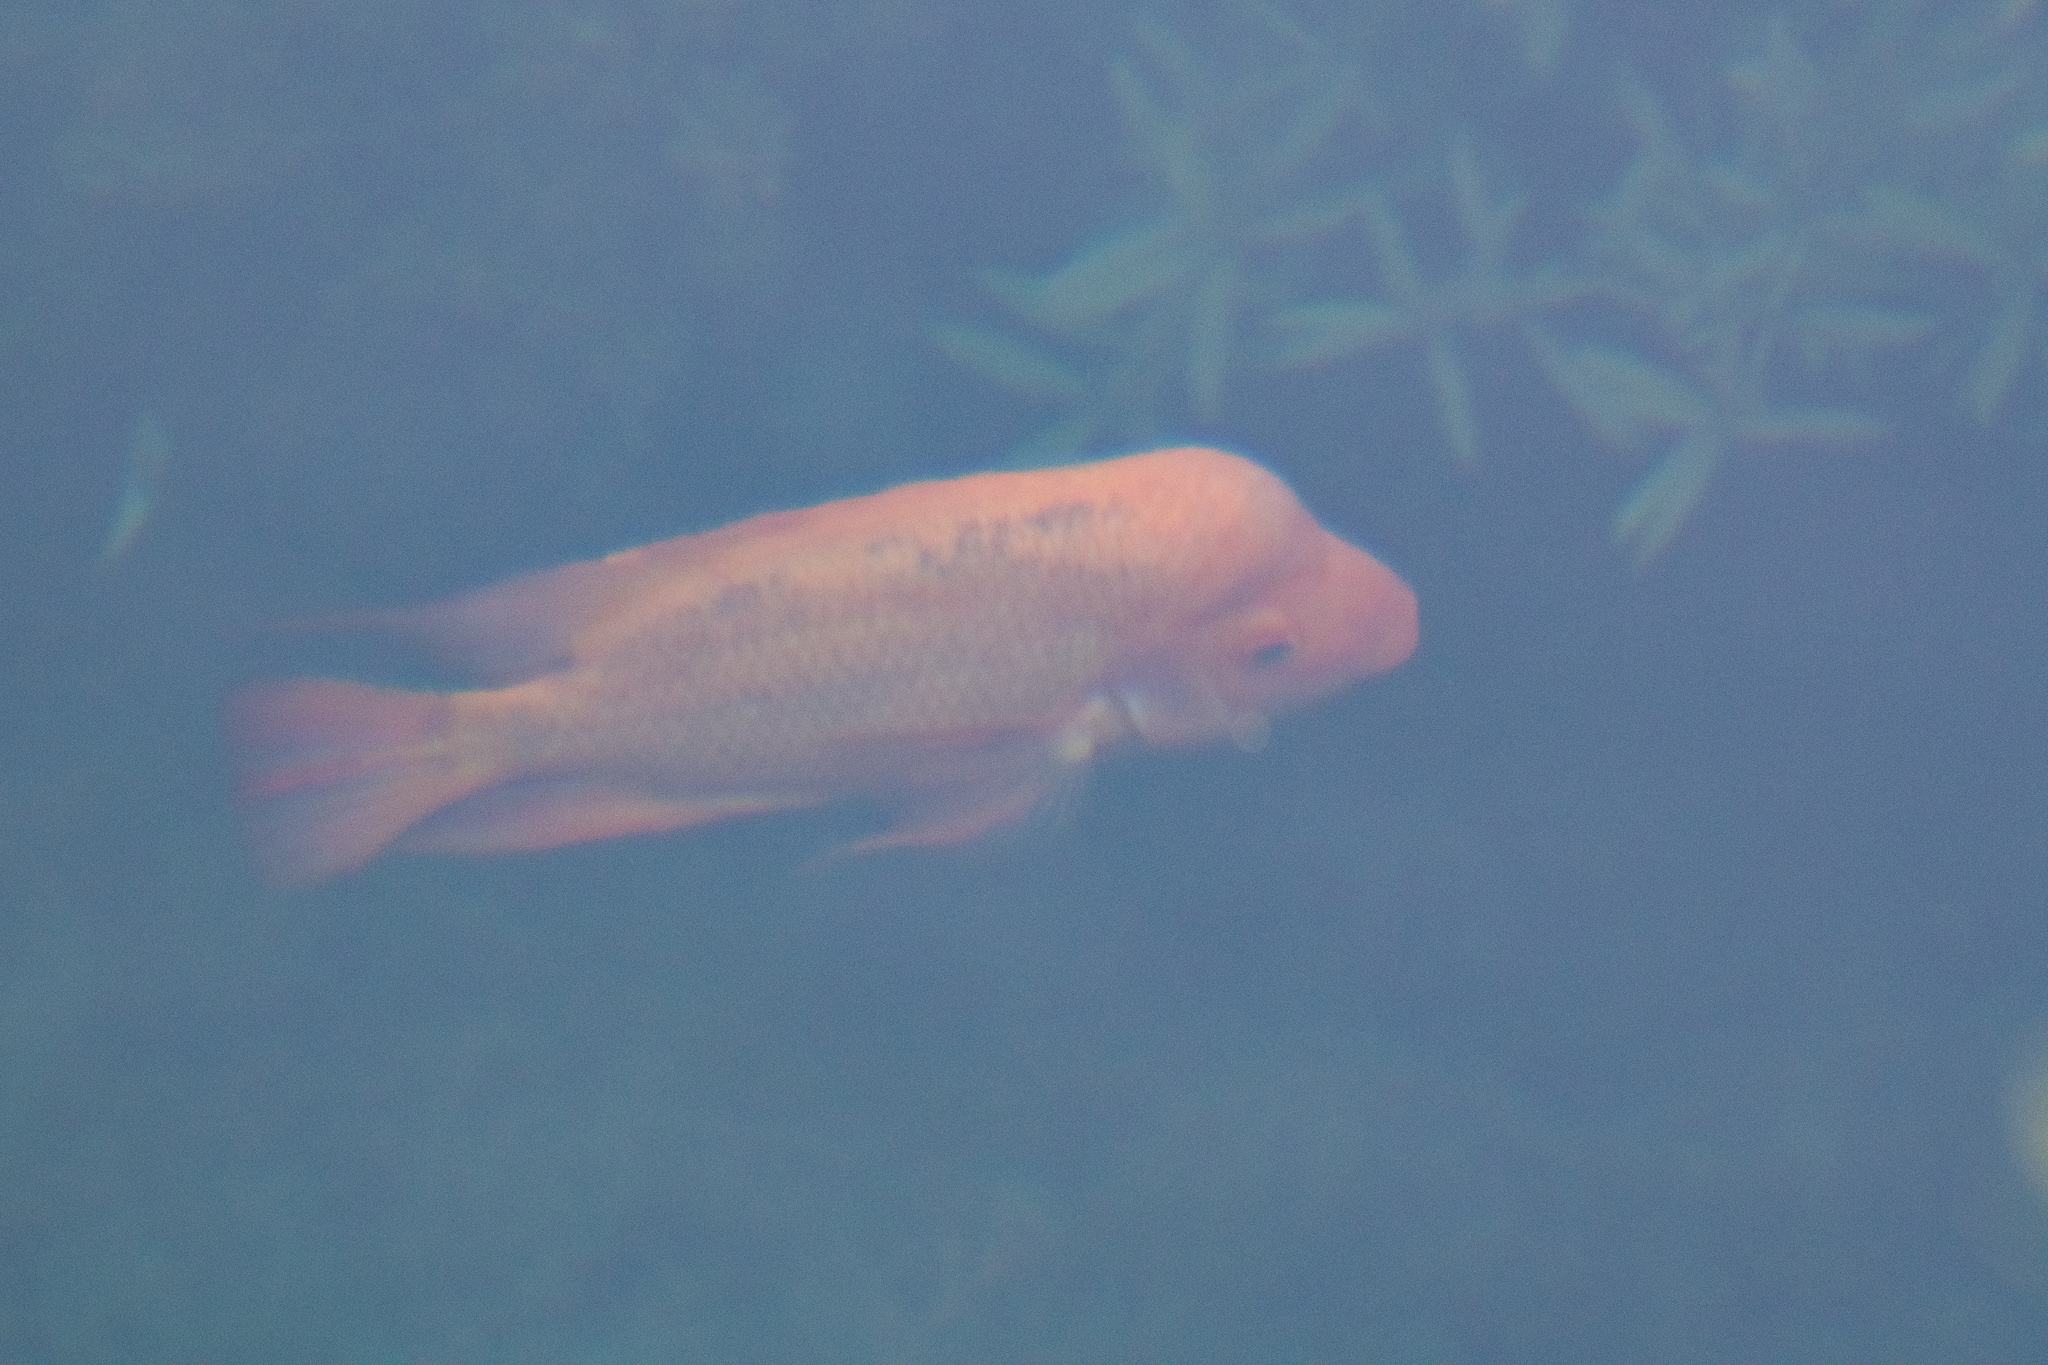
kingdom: Animalia
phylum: Chordata
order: Perciformes
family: Cichlidae
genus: Amphilophus
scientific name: Amphilophus citrinellus
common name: Midas cichlid
